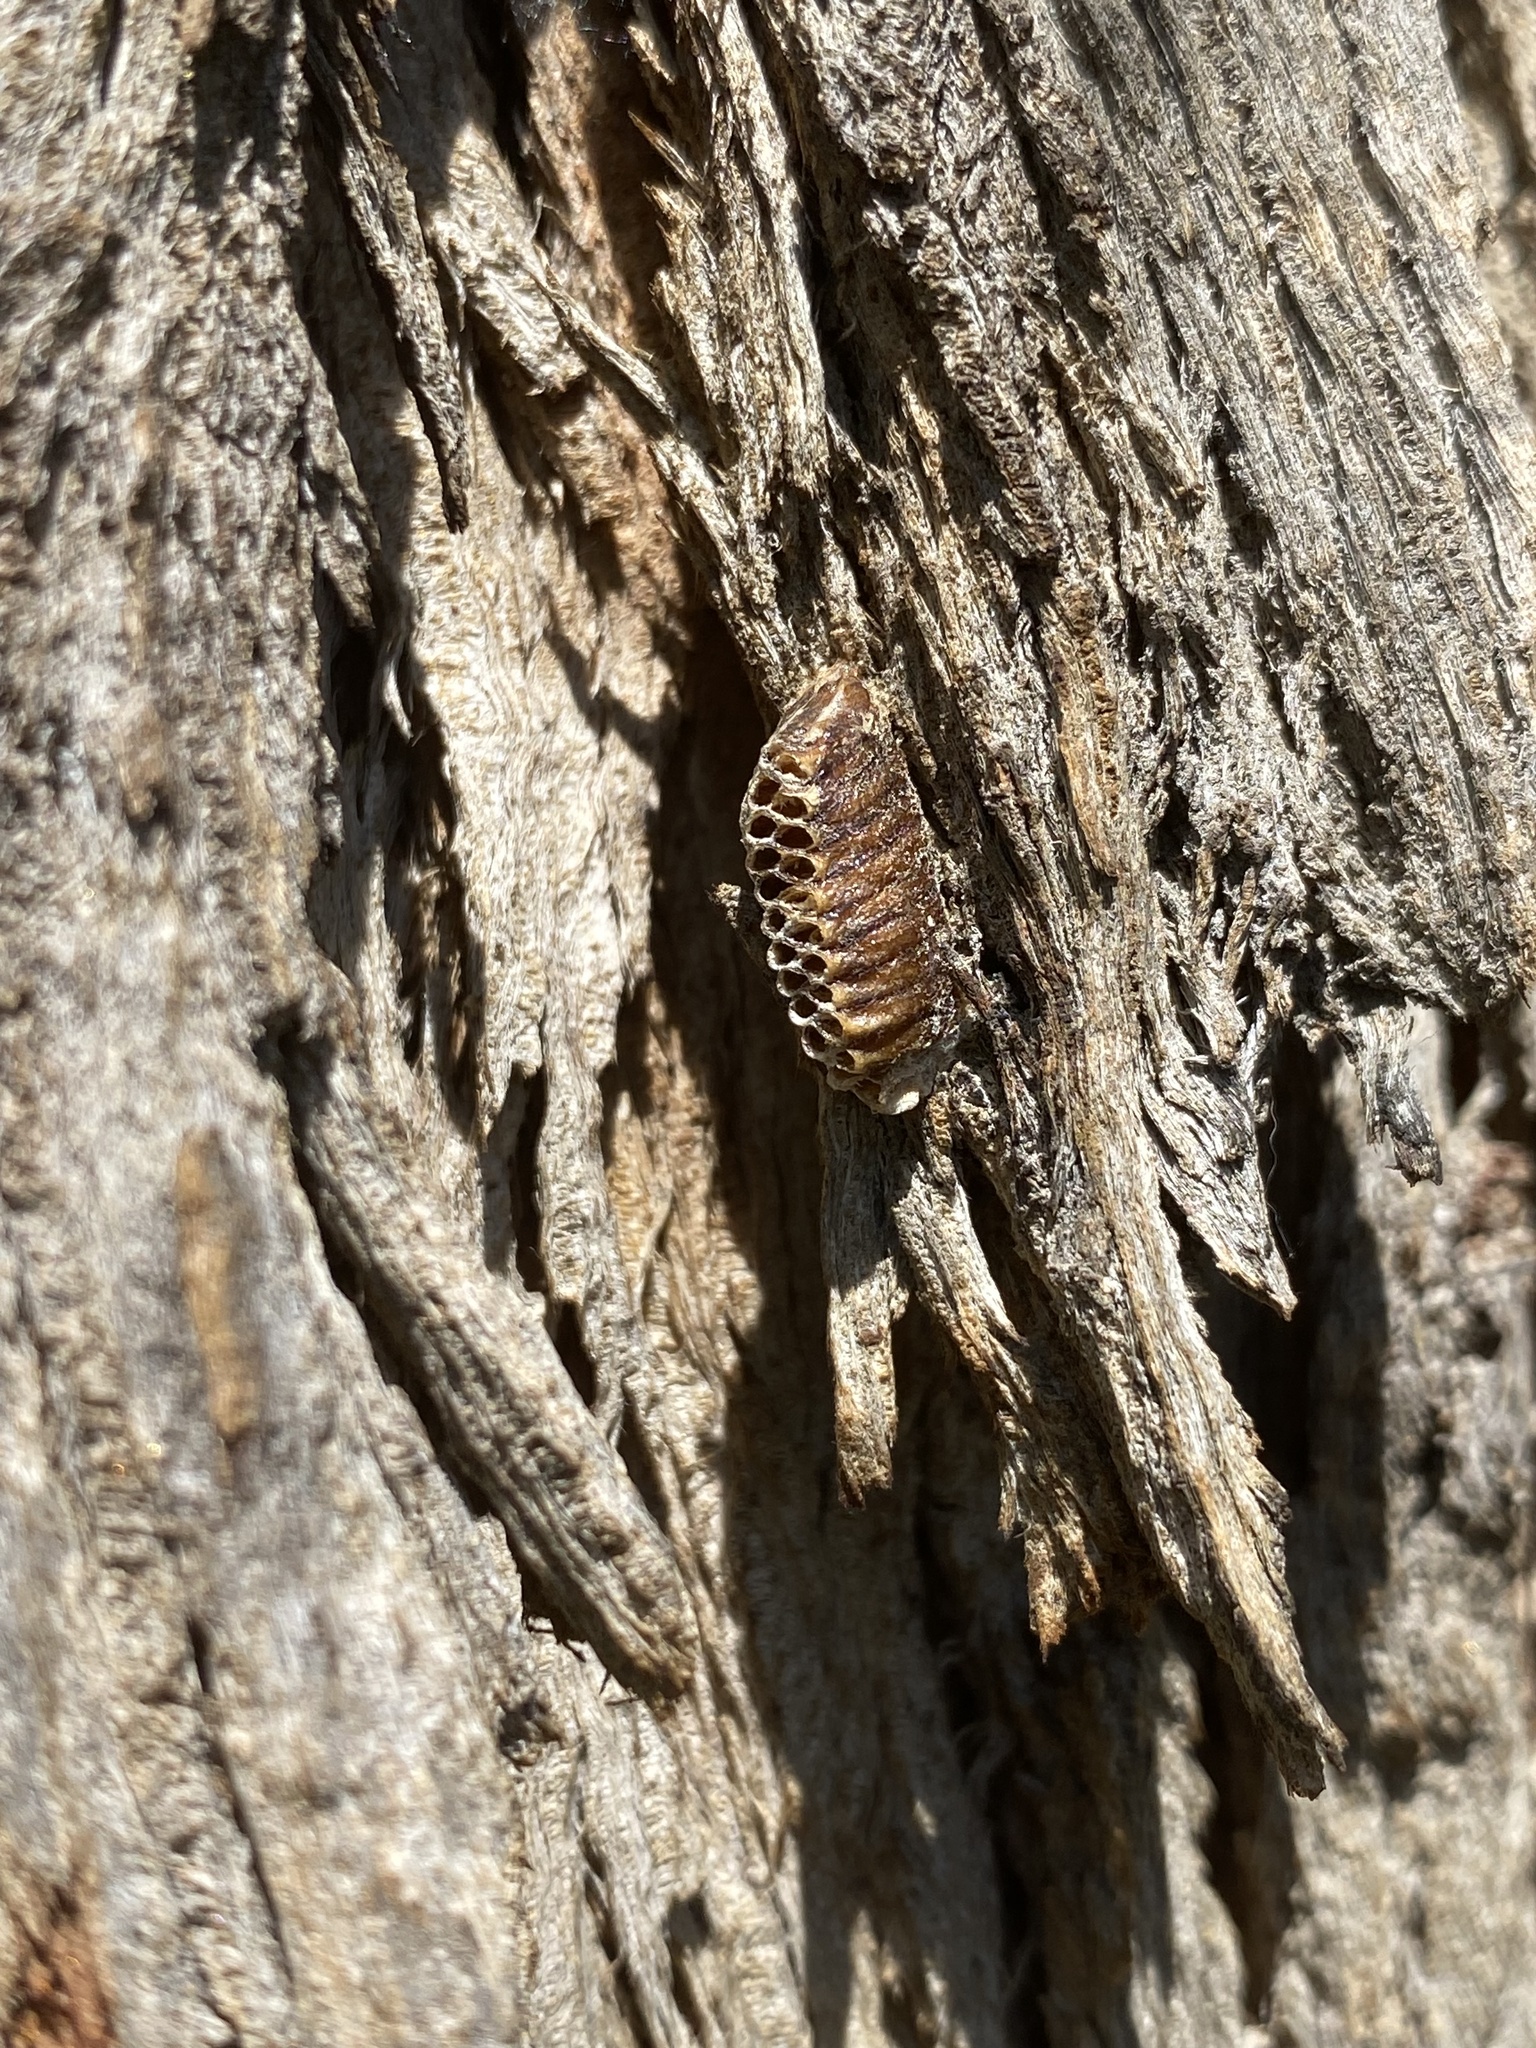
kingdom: Animalia
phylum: Arthropoda
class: Insecta
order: Mantodea
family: Mantidae
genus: Orthodera
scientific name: Orthodera novaezealandiae
